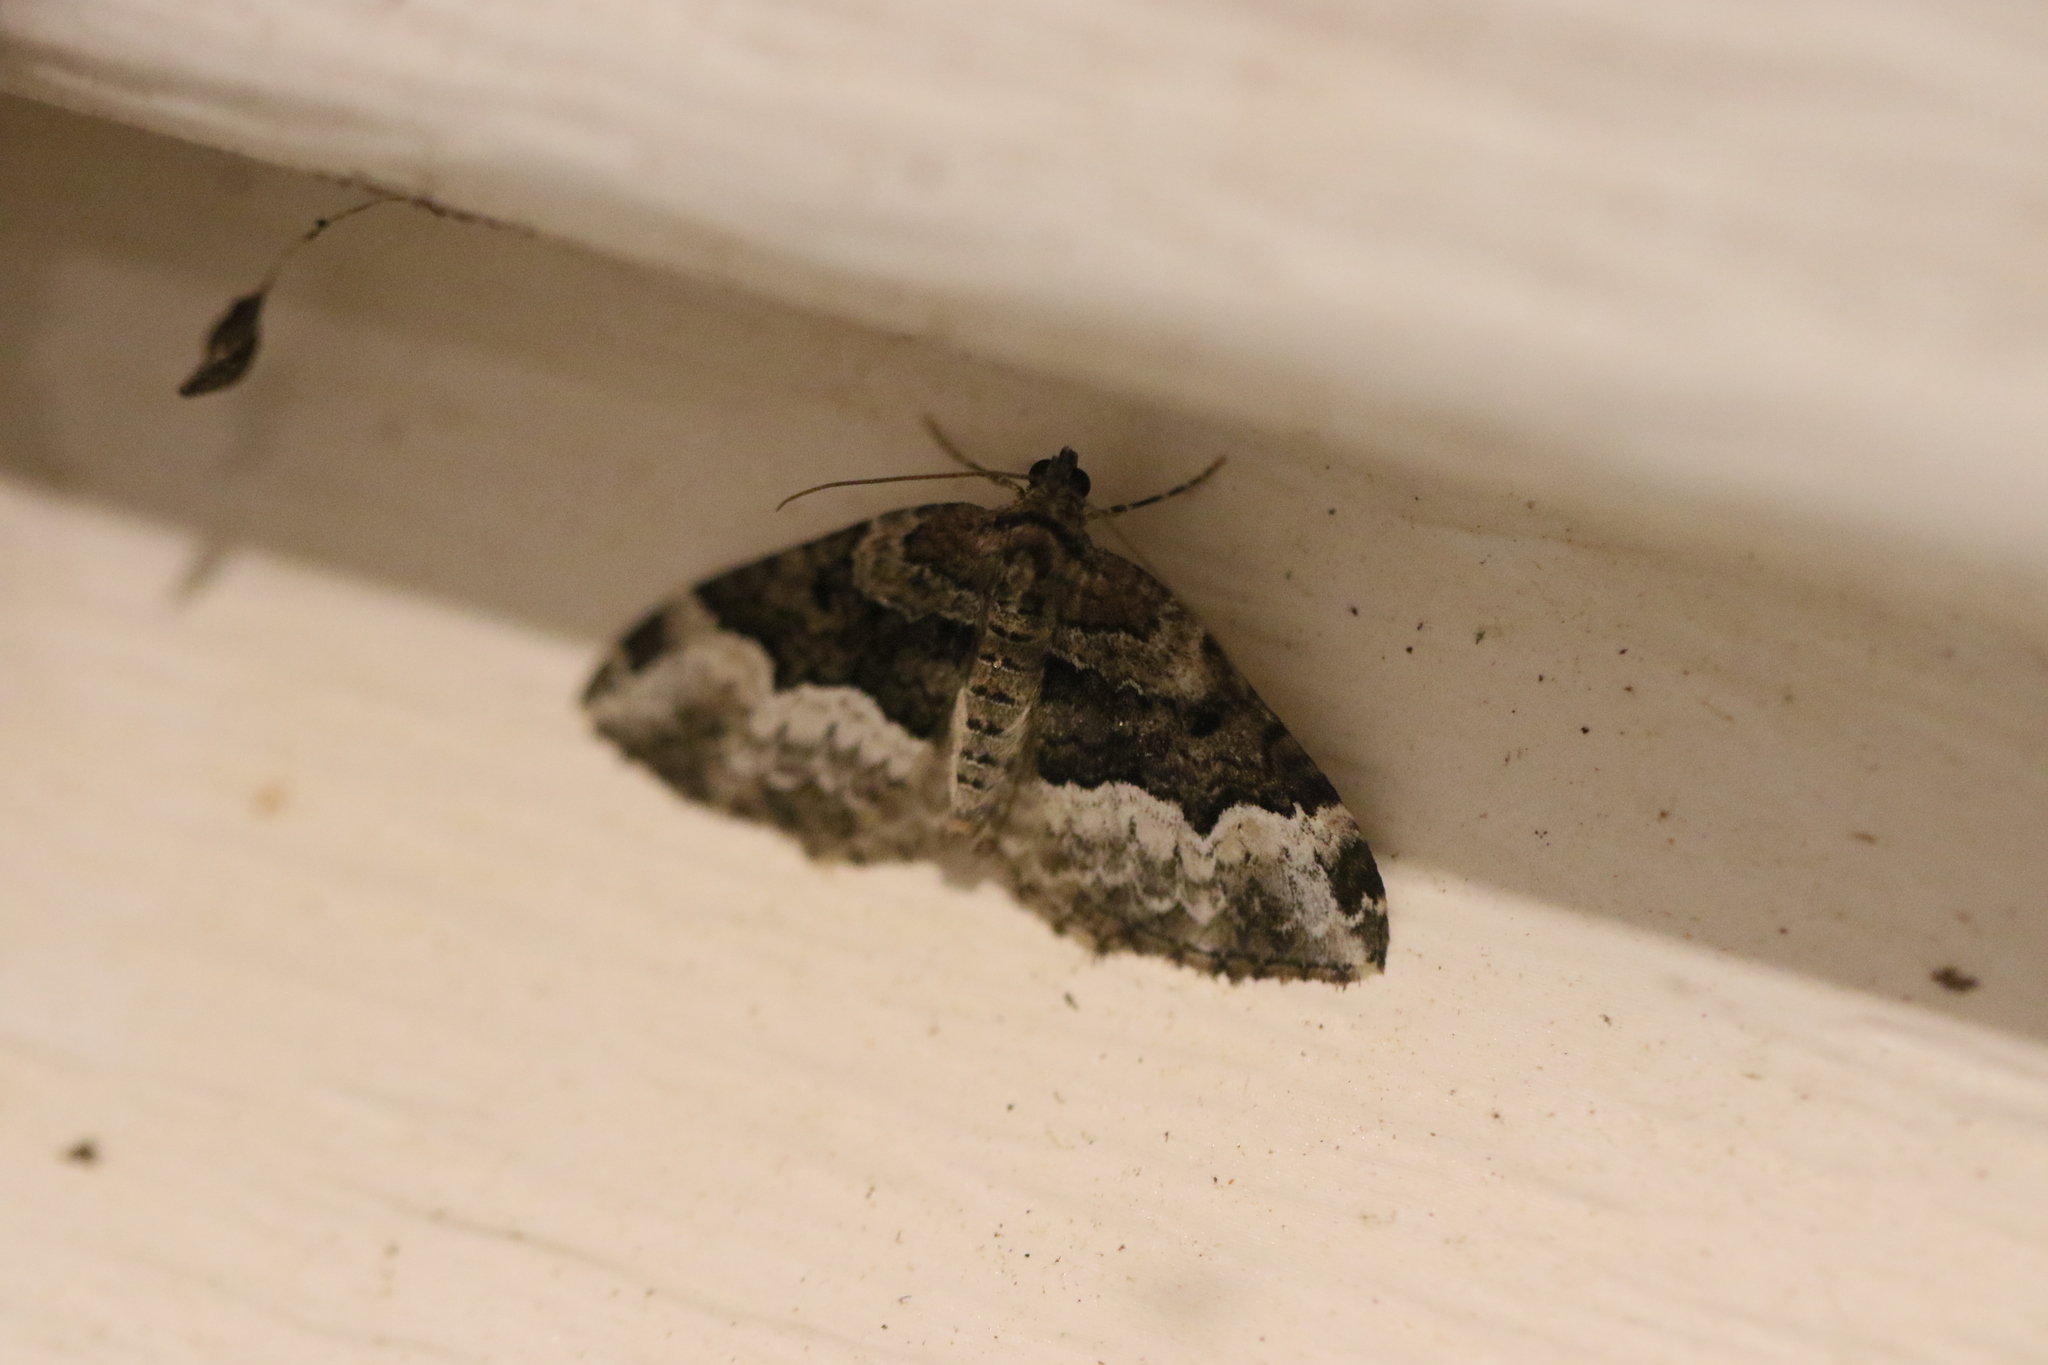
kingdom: Animalia
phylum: Arthropoda
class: Insecta
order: Lepidoptera
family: Geometridae
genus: Euphyia
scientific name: Euphyia intermediata
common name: Sharp-angled carpet
